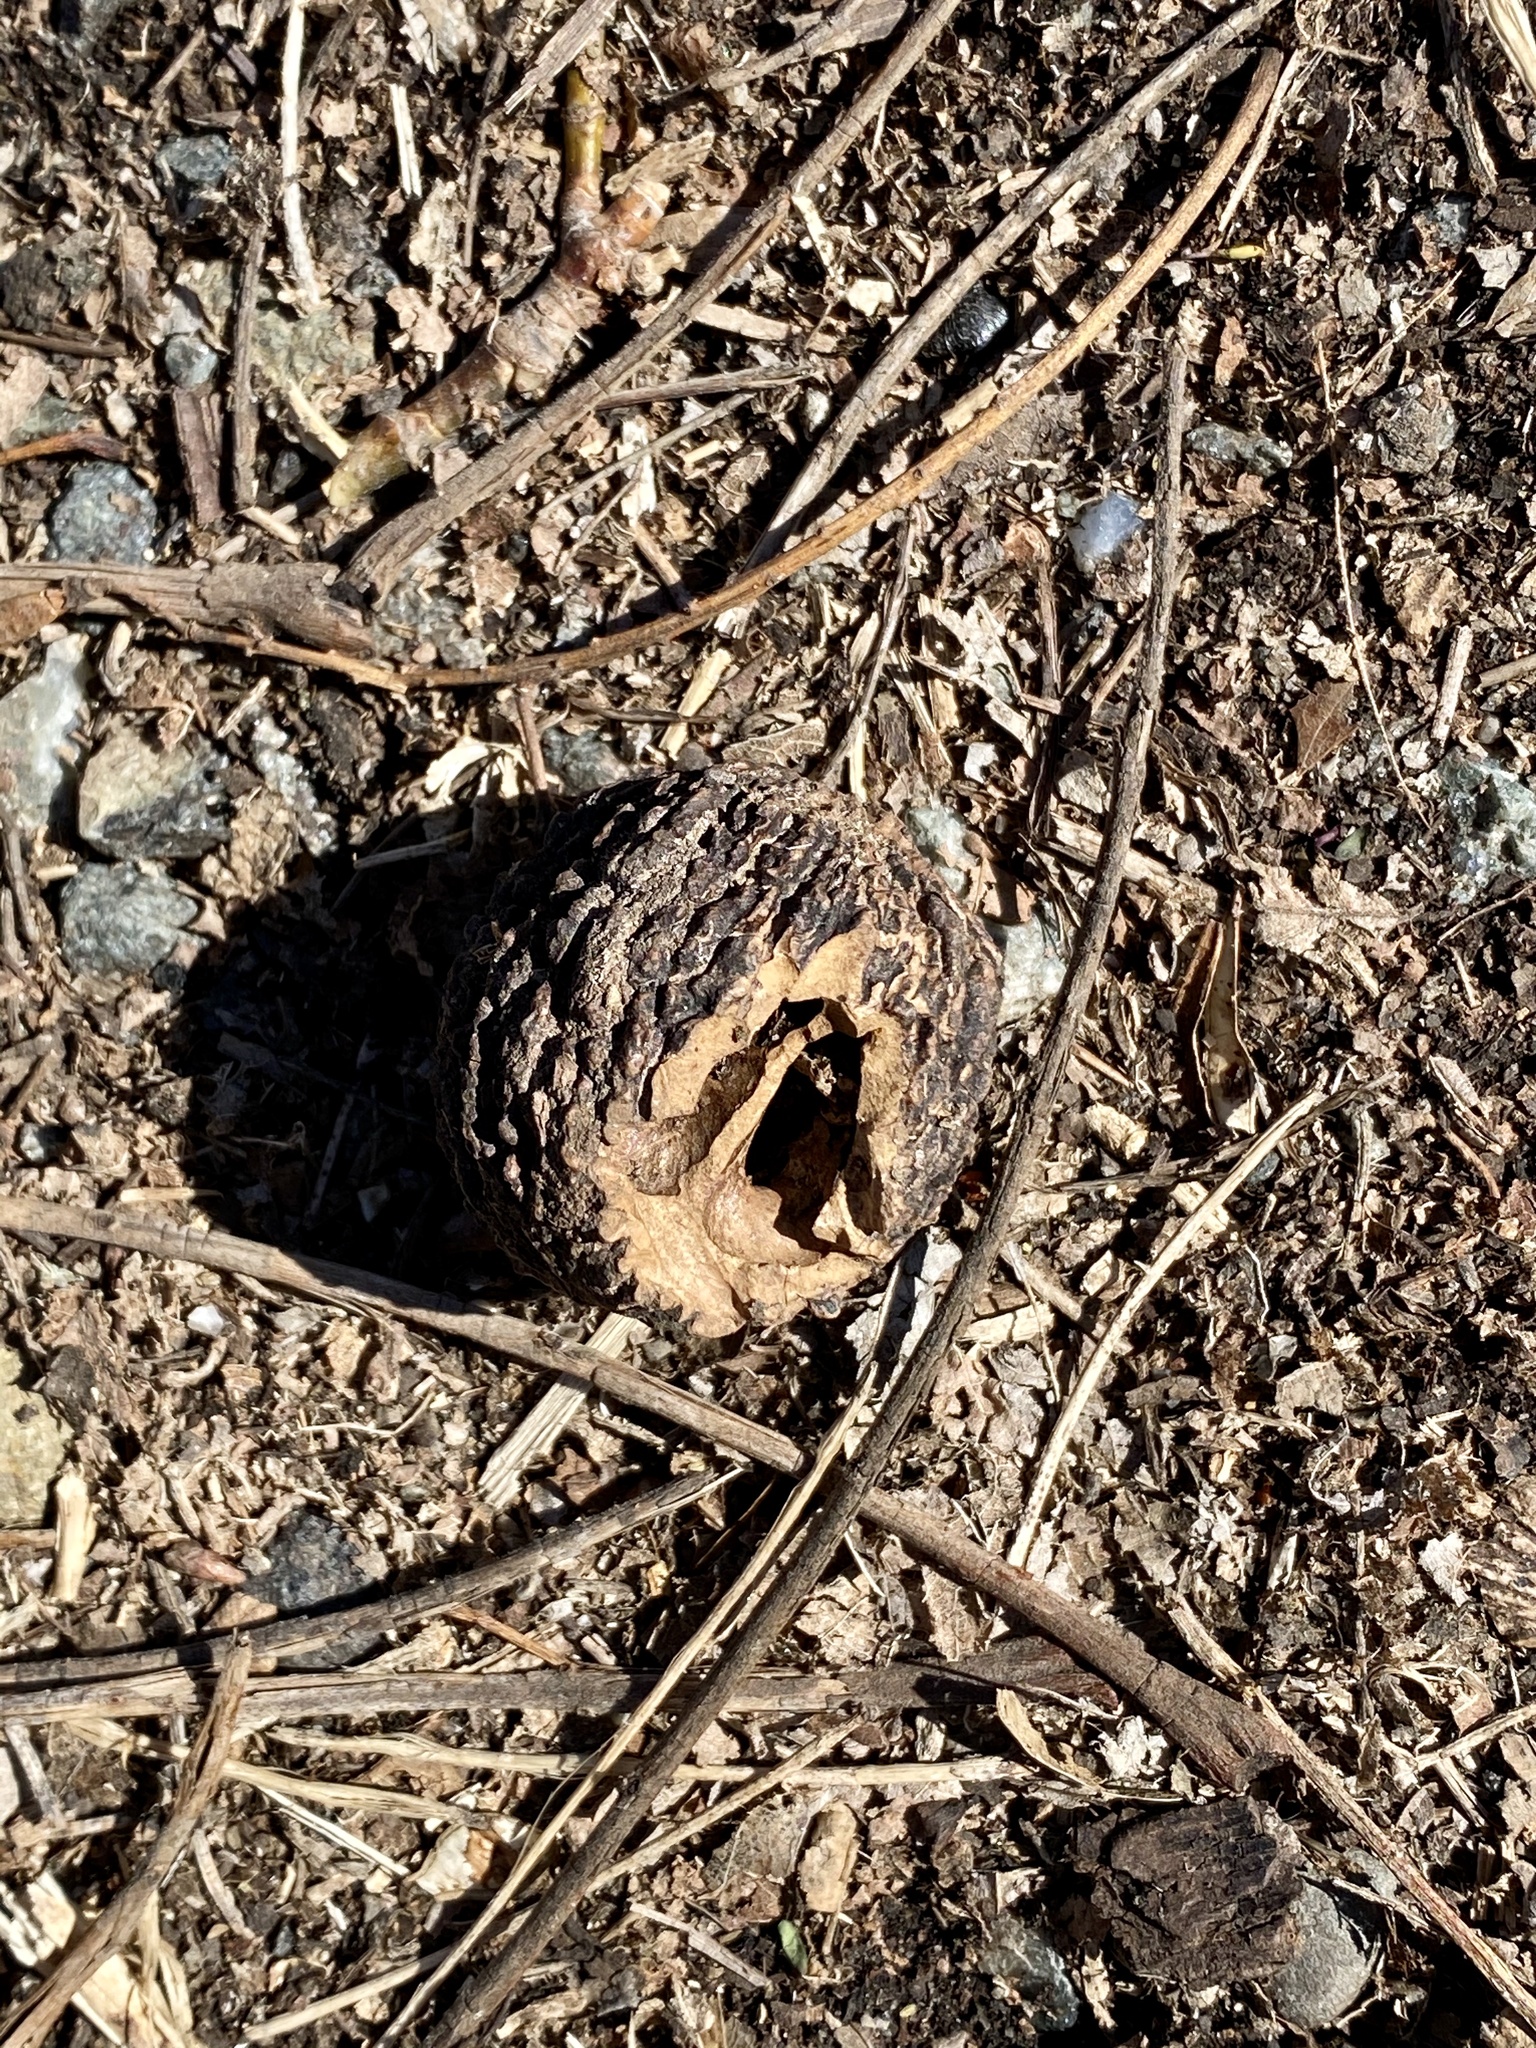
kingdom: Plantae
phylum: Tracheophyta
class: Magnoliopsida
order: Fagales
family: Juglandaceae
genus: Juglans
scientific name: Juglans nigra
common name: Black walnut
